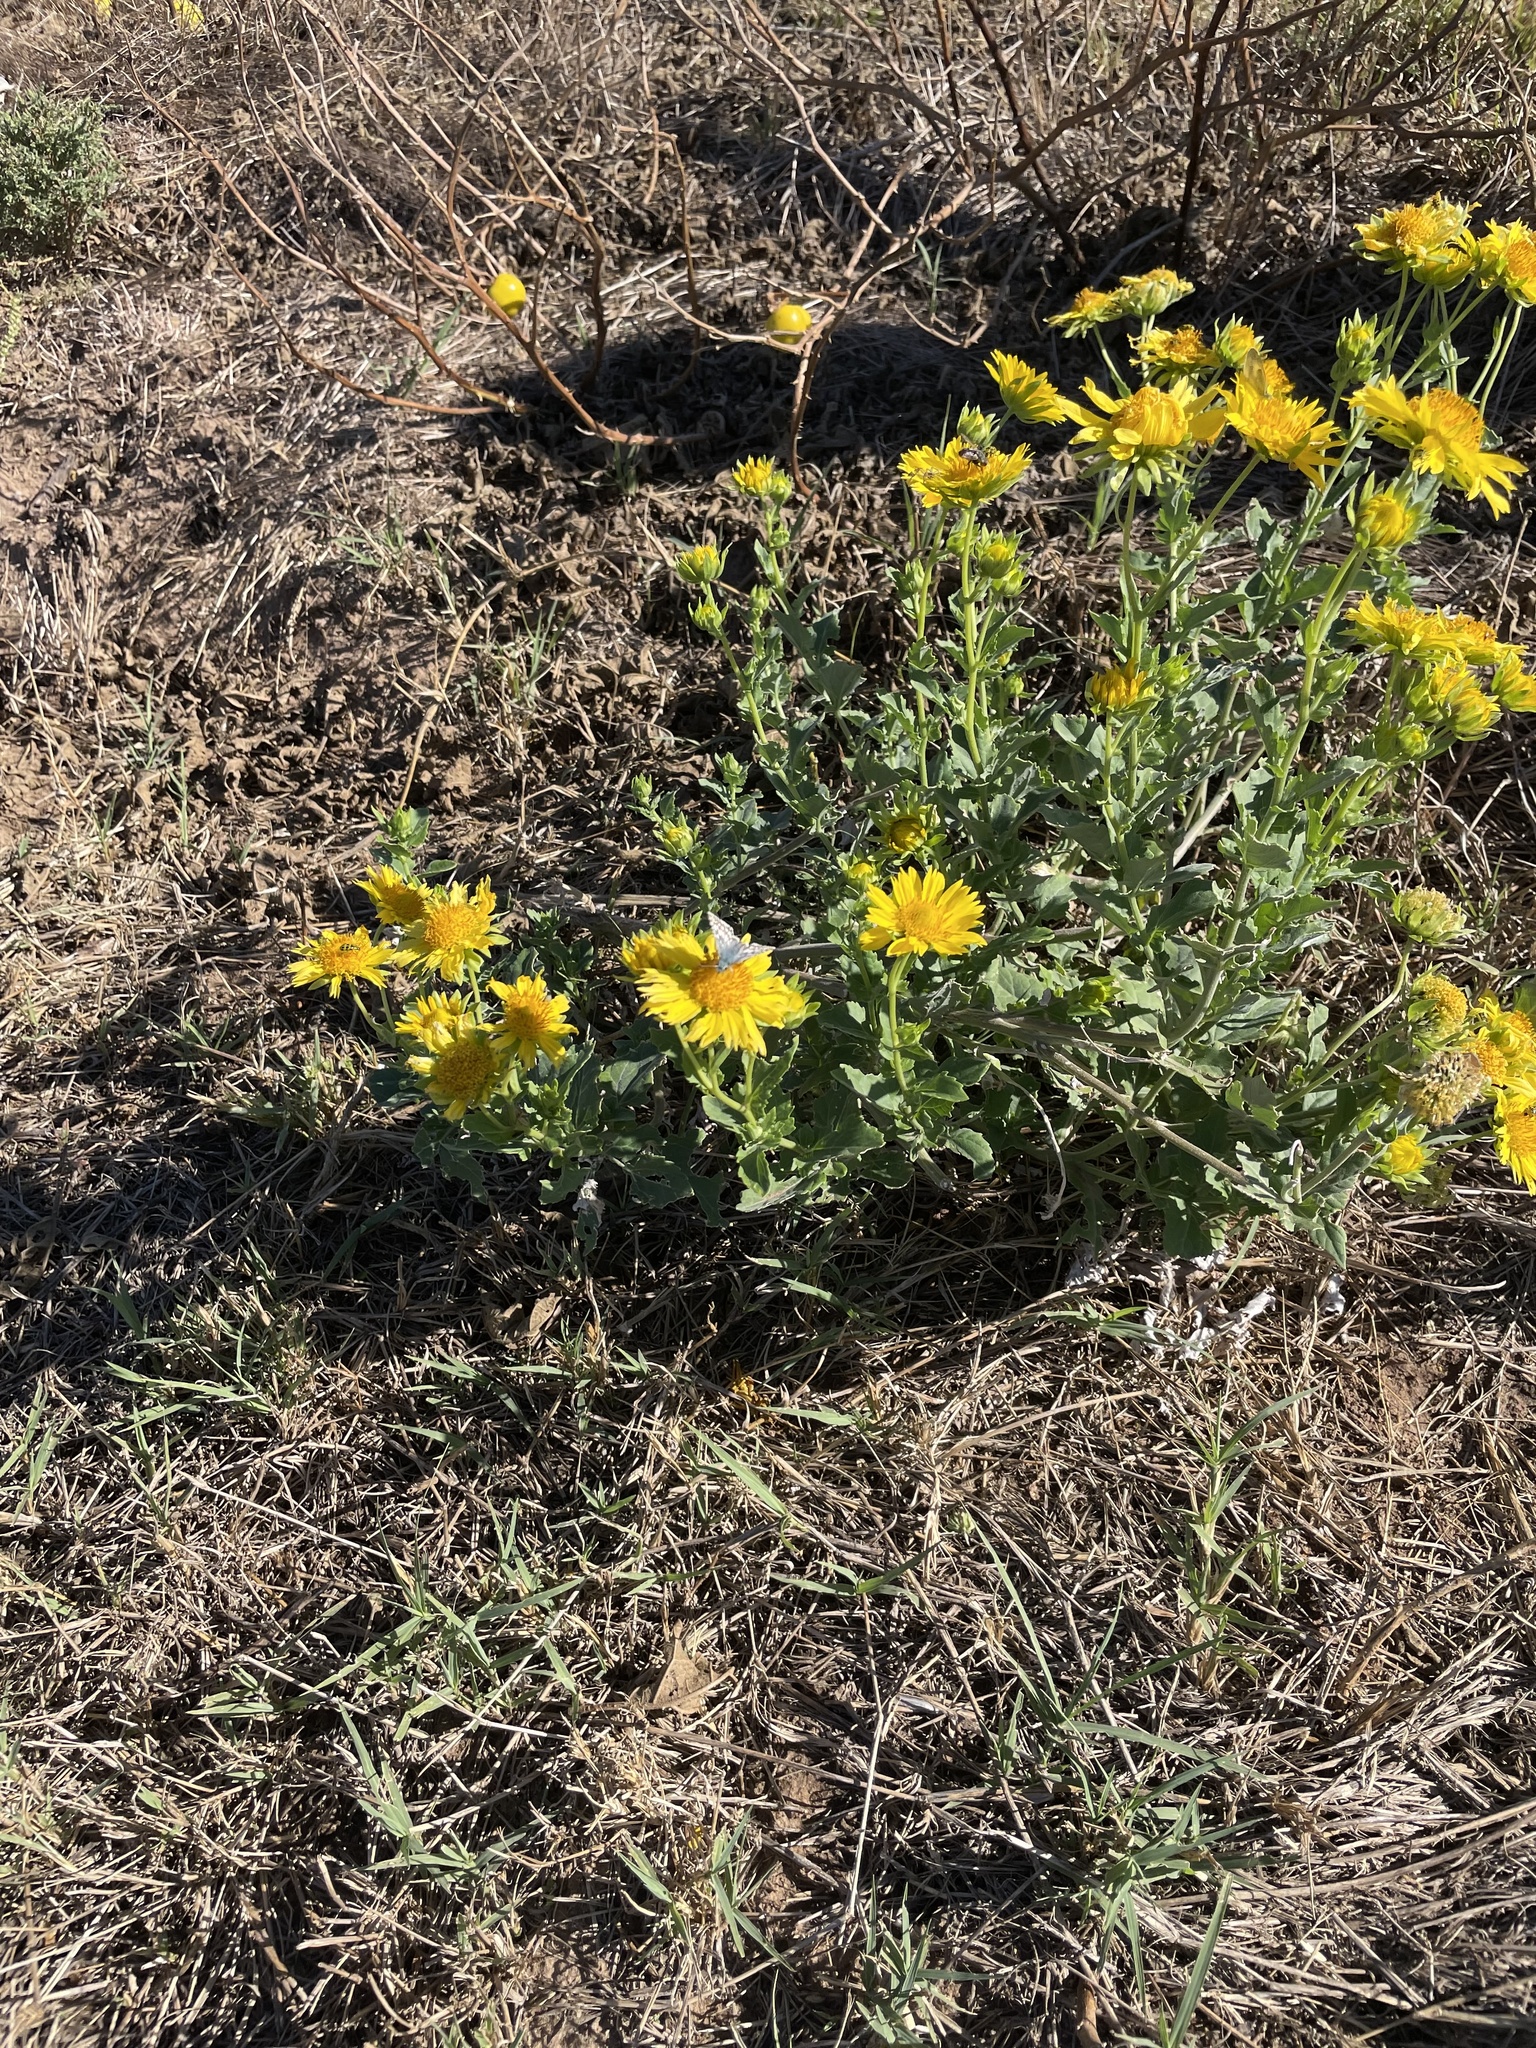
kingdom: Plantae
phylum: Tracheophyta
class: Magnoliopsida
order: Asterales
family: Asteraceae
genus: Verbesina
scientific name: Verbesina encelioides
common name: Golden crownbeard
